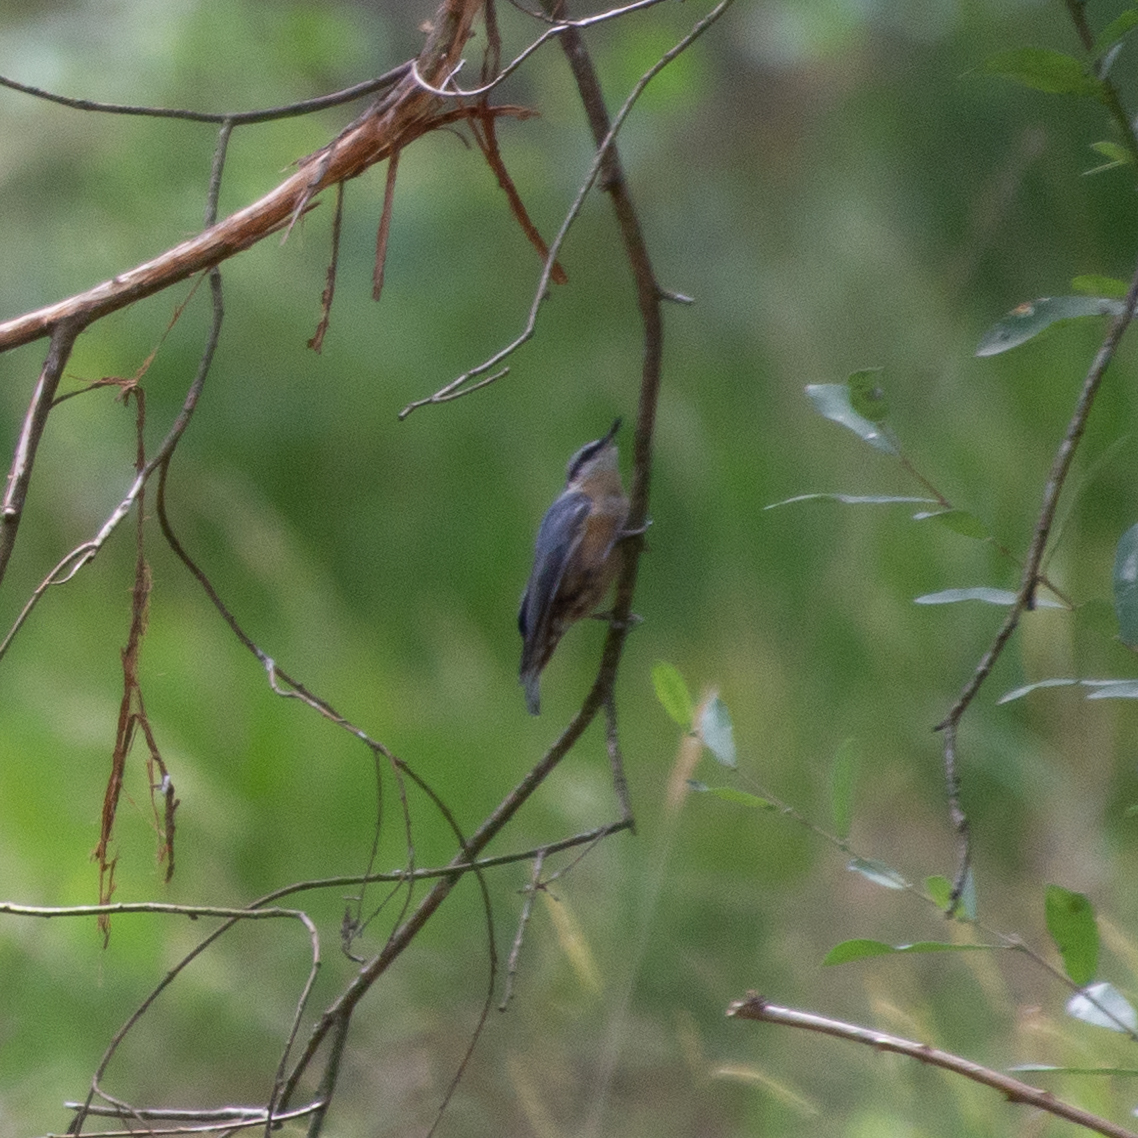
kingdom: Animalia
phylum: Chordata
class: Aves
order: Passeriformes
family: Sittidae
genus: Sitta
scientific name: Sitta europaea
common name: Eurasian nuthatch
